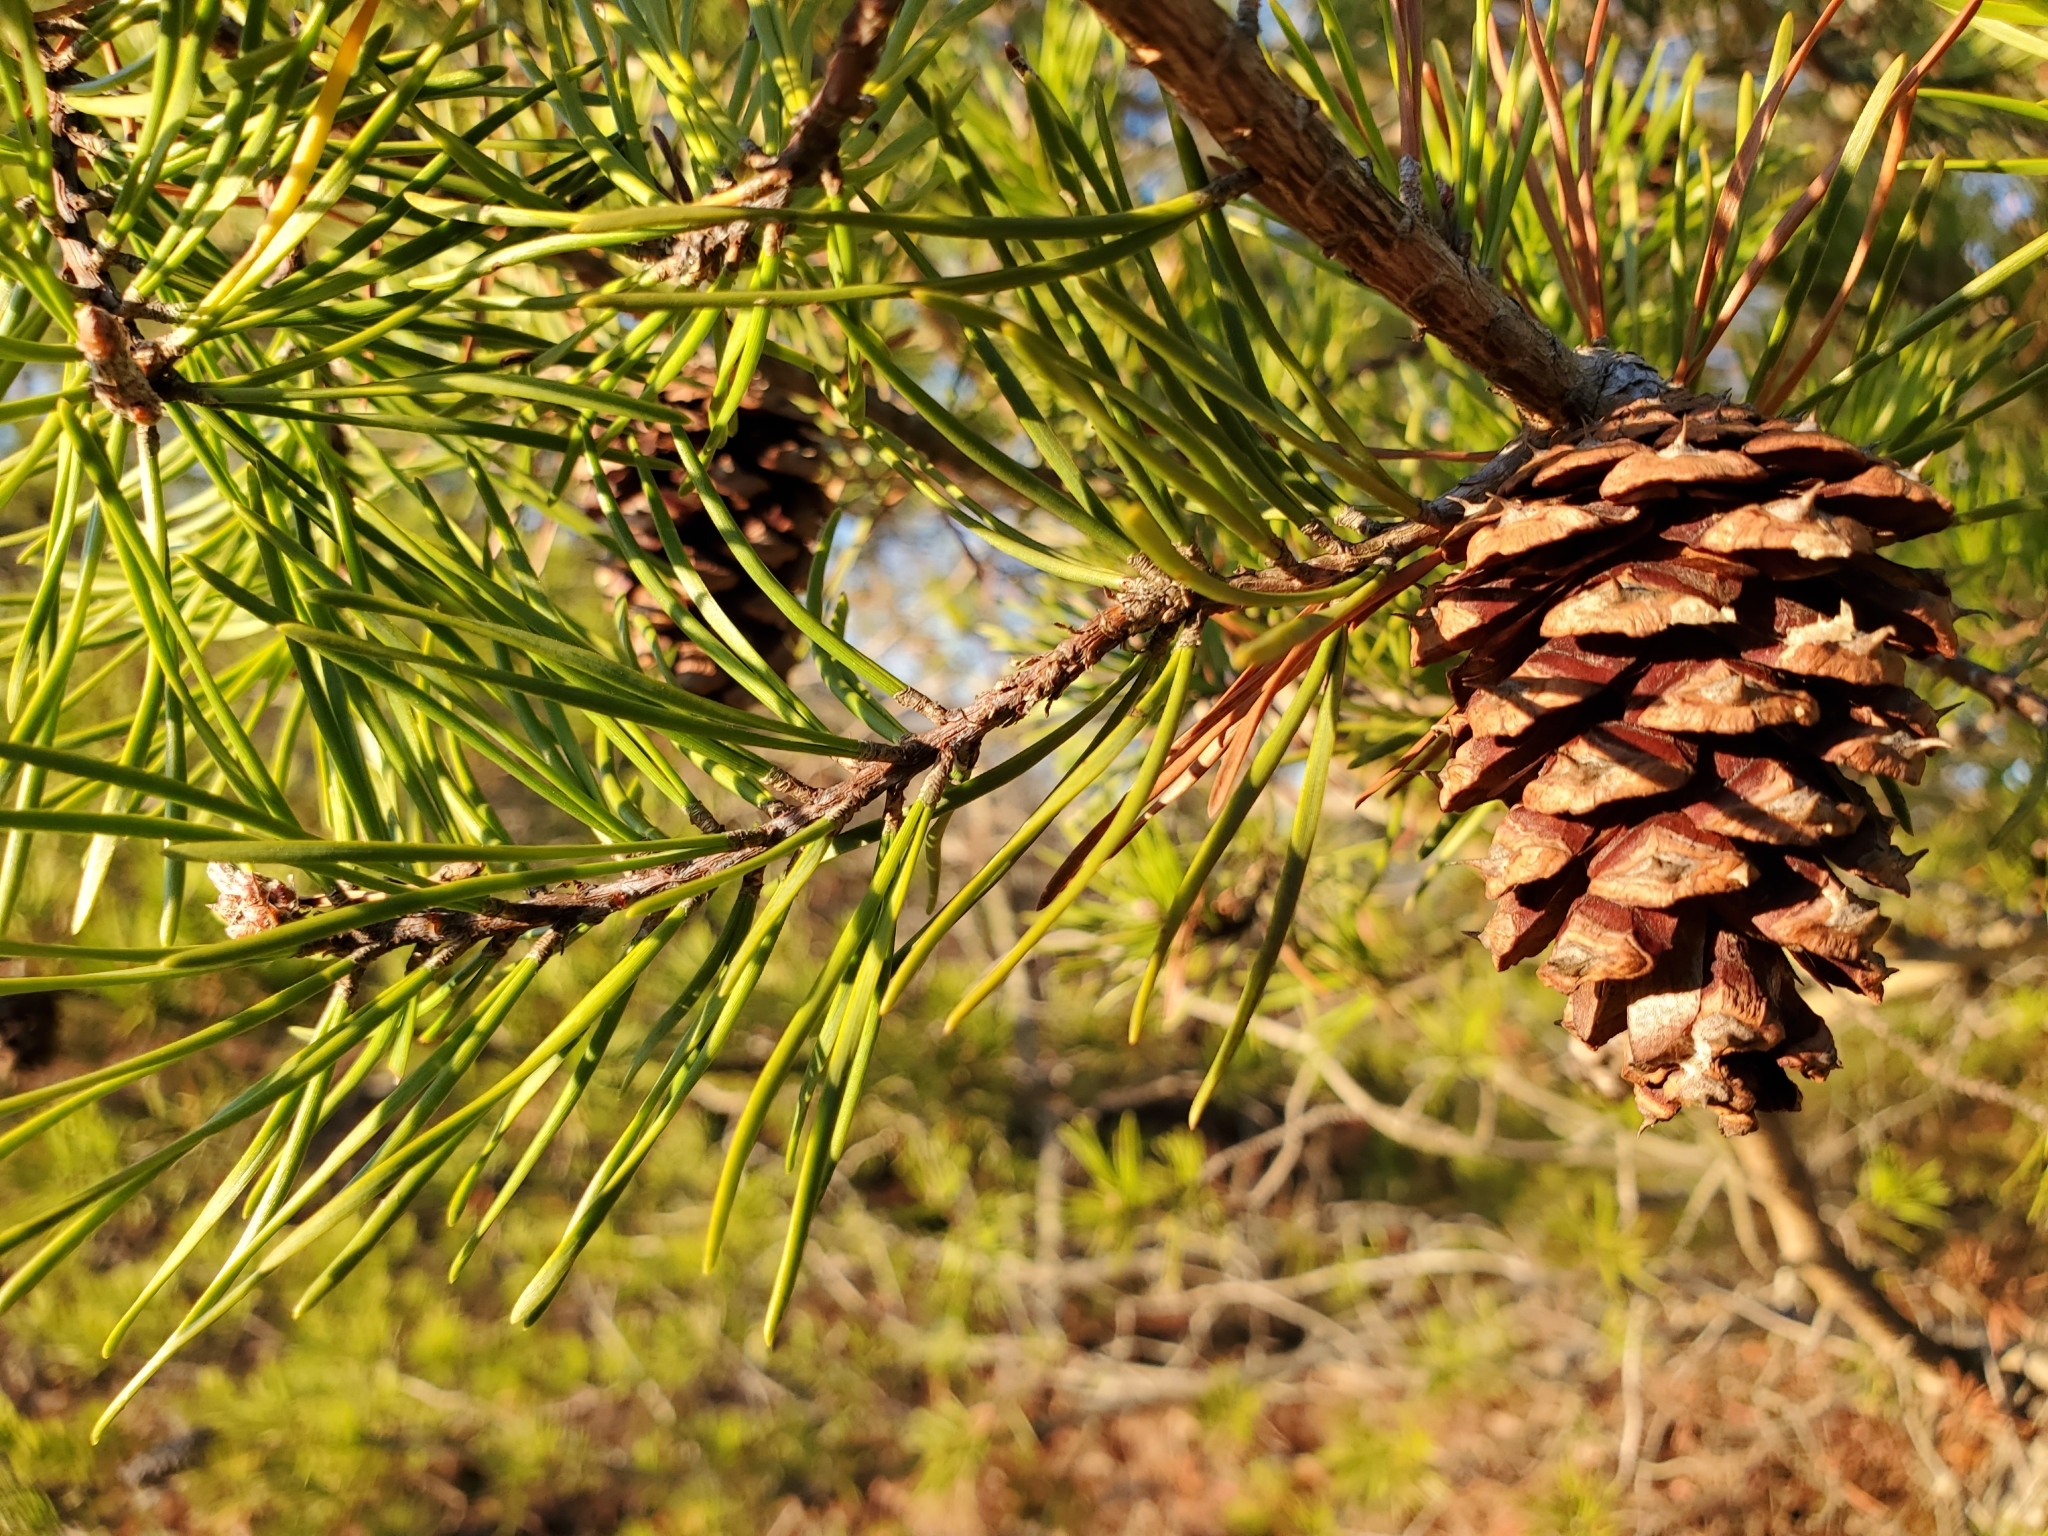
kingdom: Plantae
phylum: Tracheophyta
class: Pinopsida
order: Pinales
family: Pinaceae
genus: Pinus
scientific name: Pinus virginiana
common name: Scrub pine
